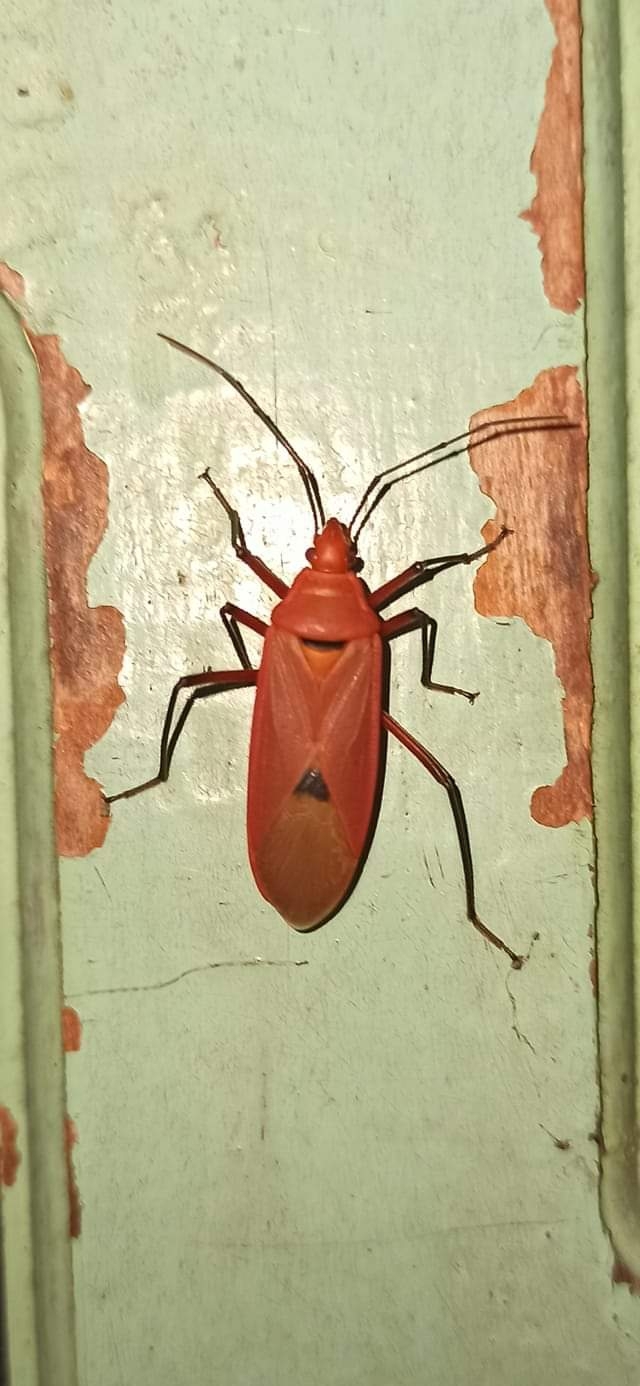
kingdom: Animalia
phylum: Arthropoda
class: Insecta
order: Hemiptera
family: Pyrrhocoridae
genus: Dysdercus
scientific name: Dysdercus fuscomaculatus
